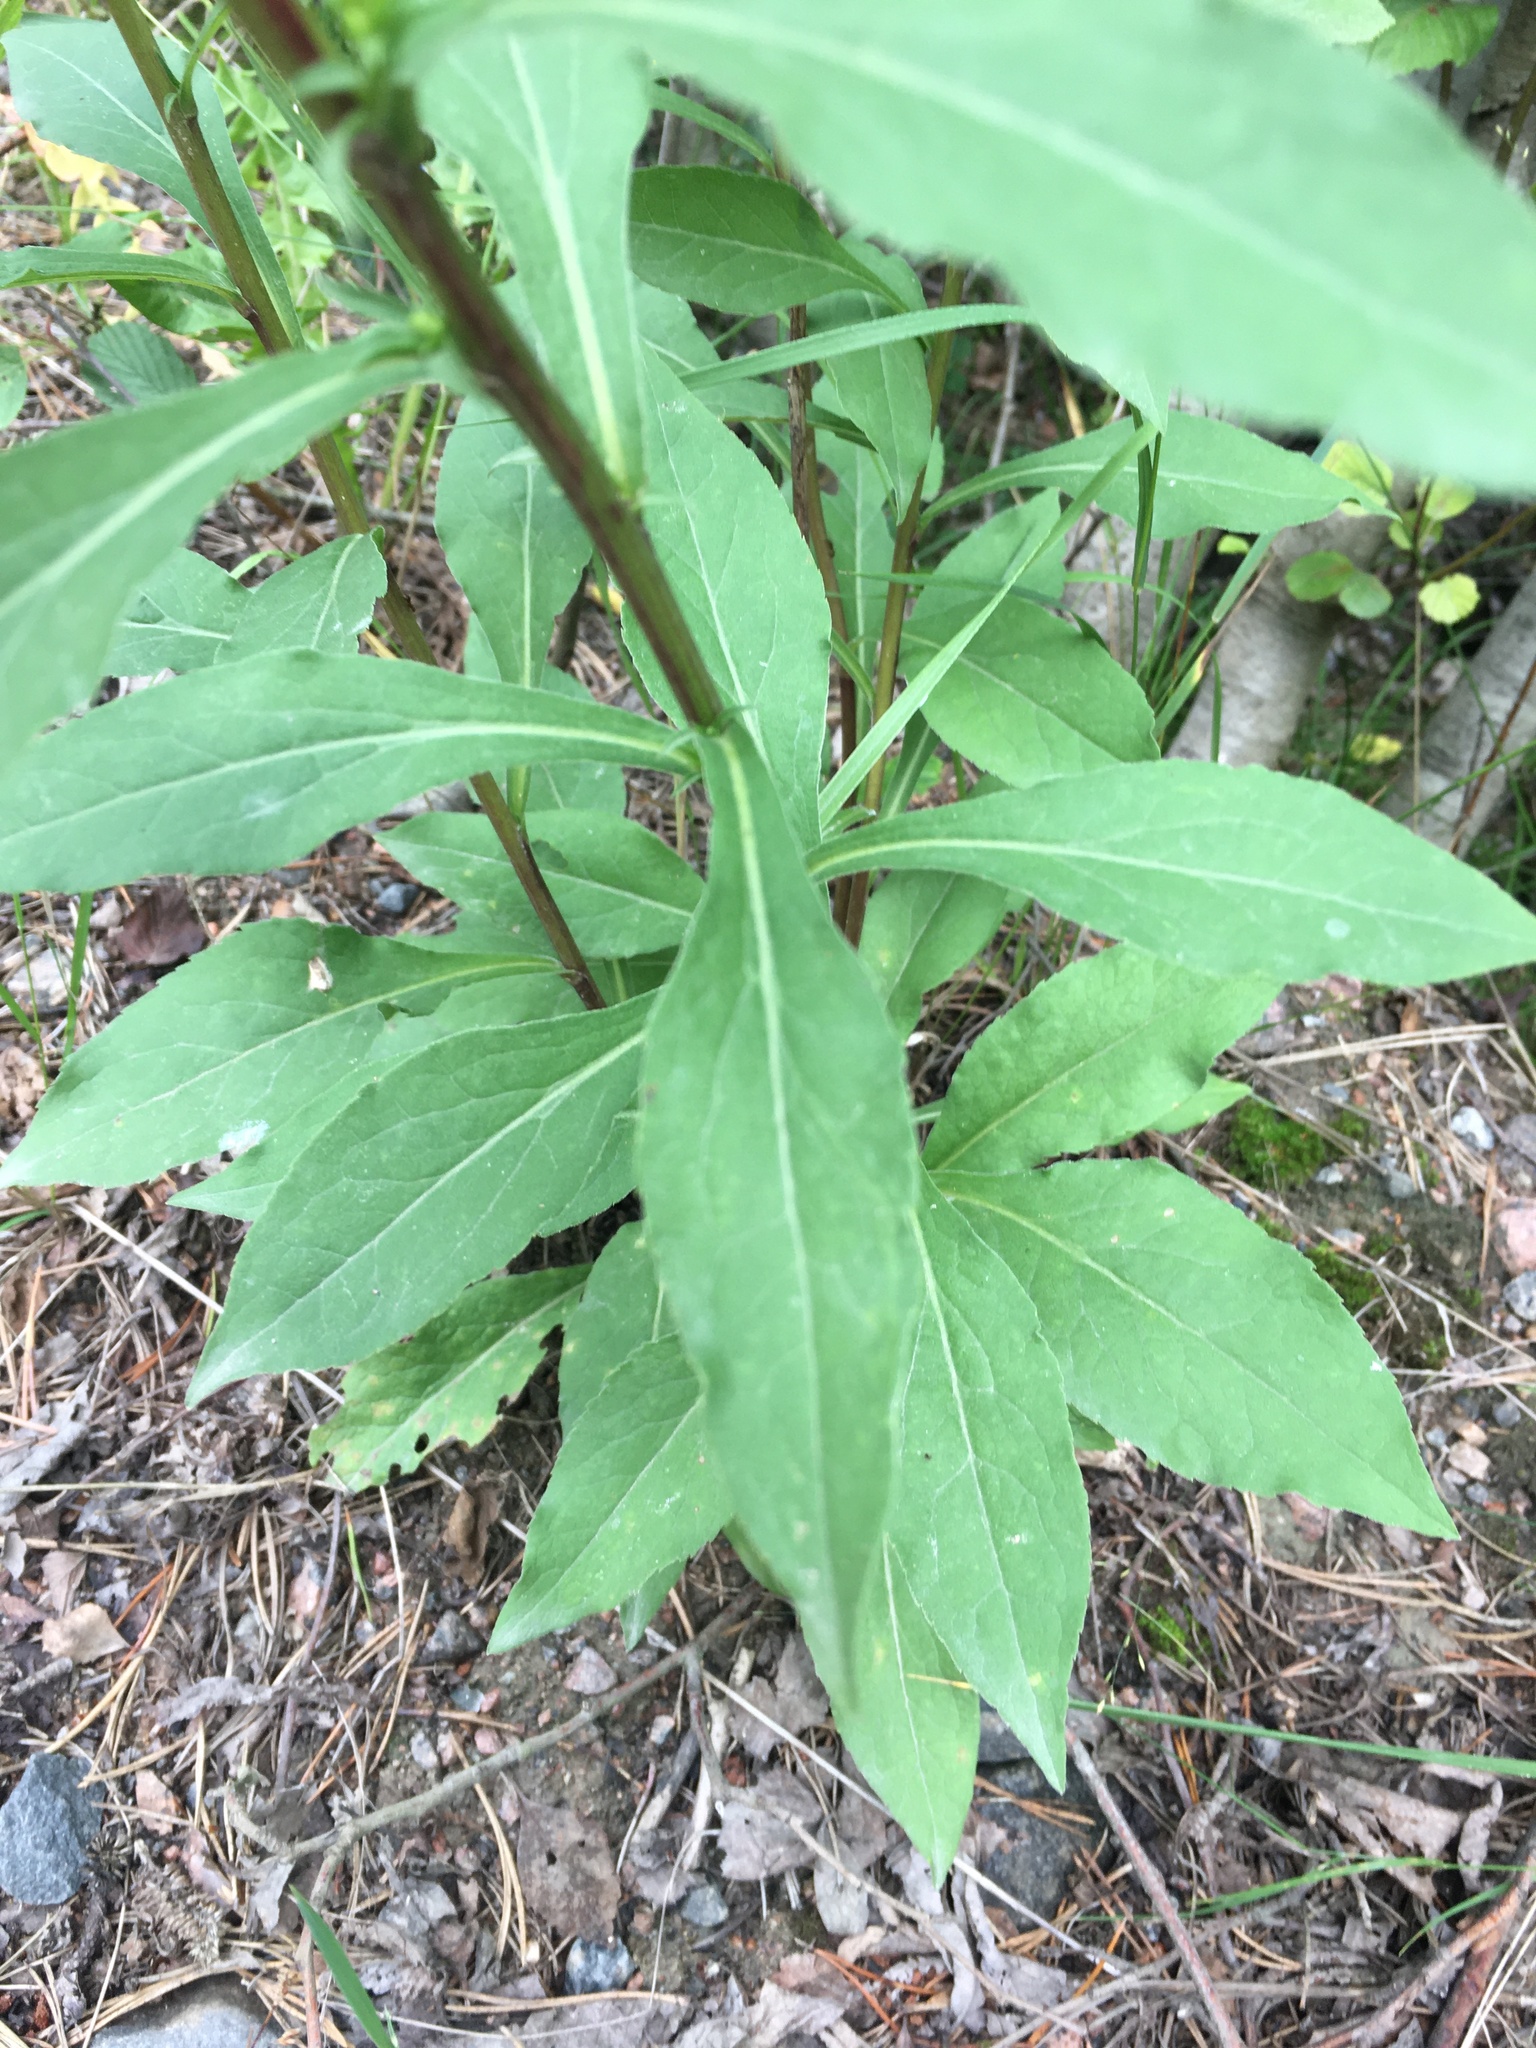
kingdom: Plantae
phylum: Tracheophyta
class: Magnoliopsida
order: Asterales
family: Asteraceae
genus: Solidago
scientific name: Solidago virgaurea
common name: Goldenrod
